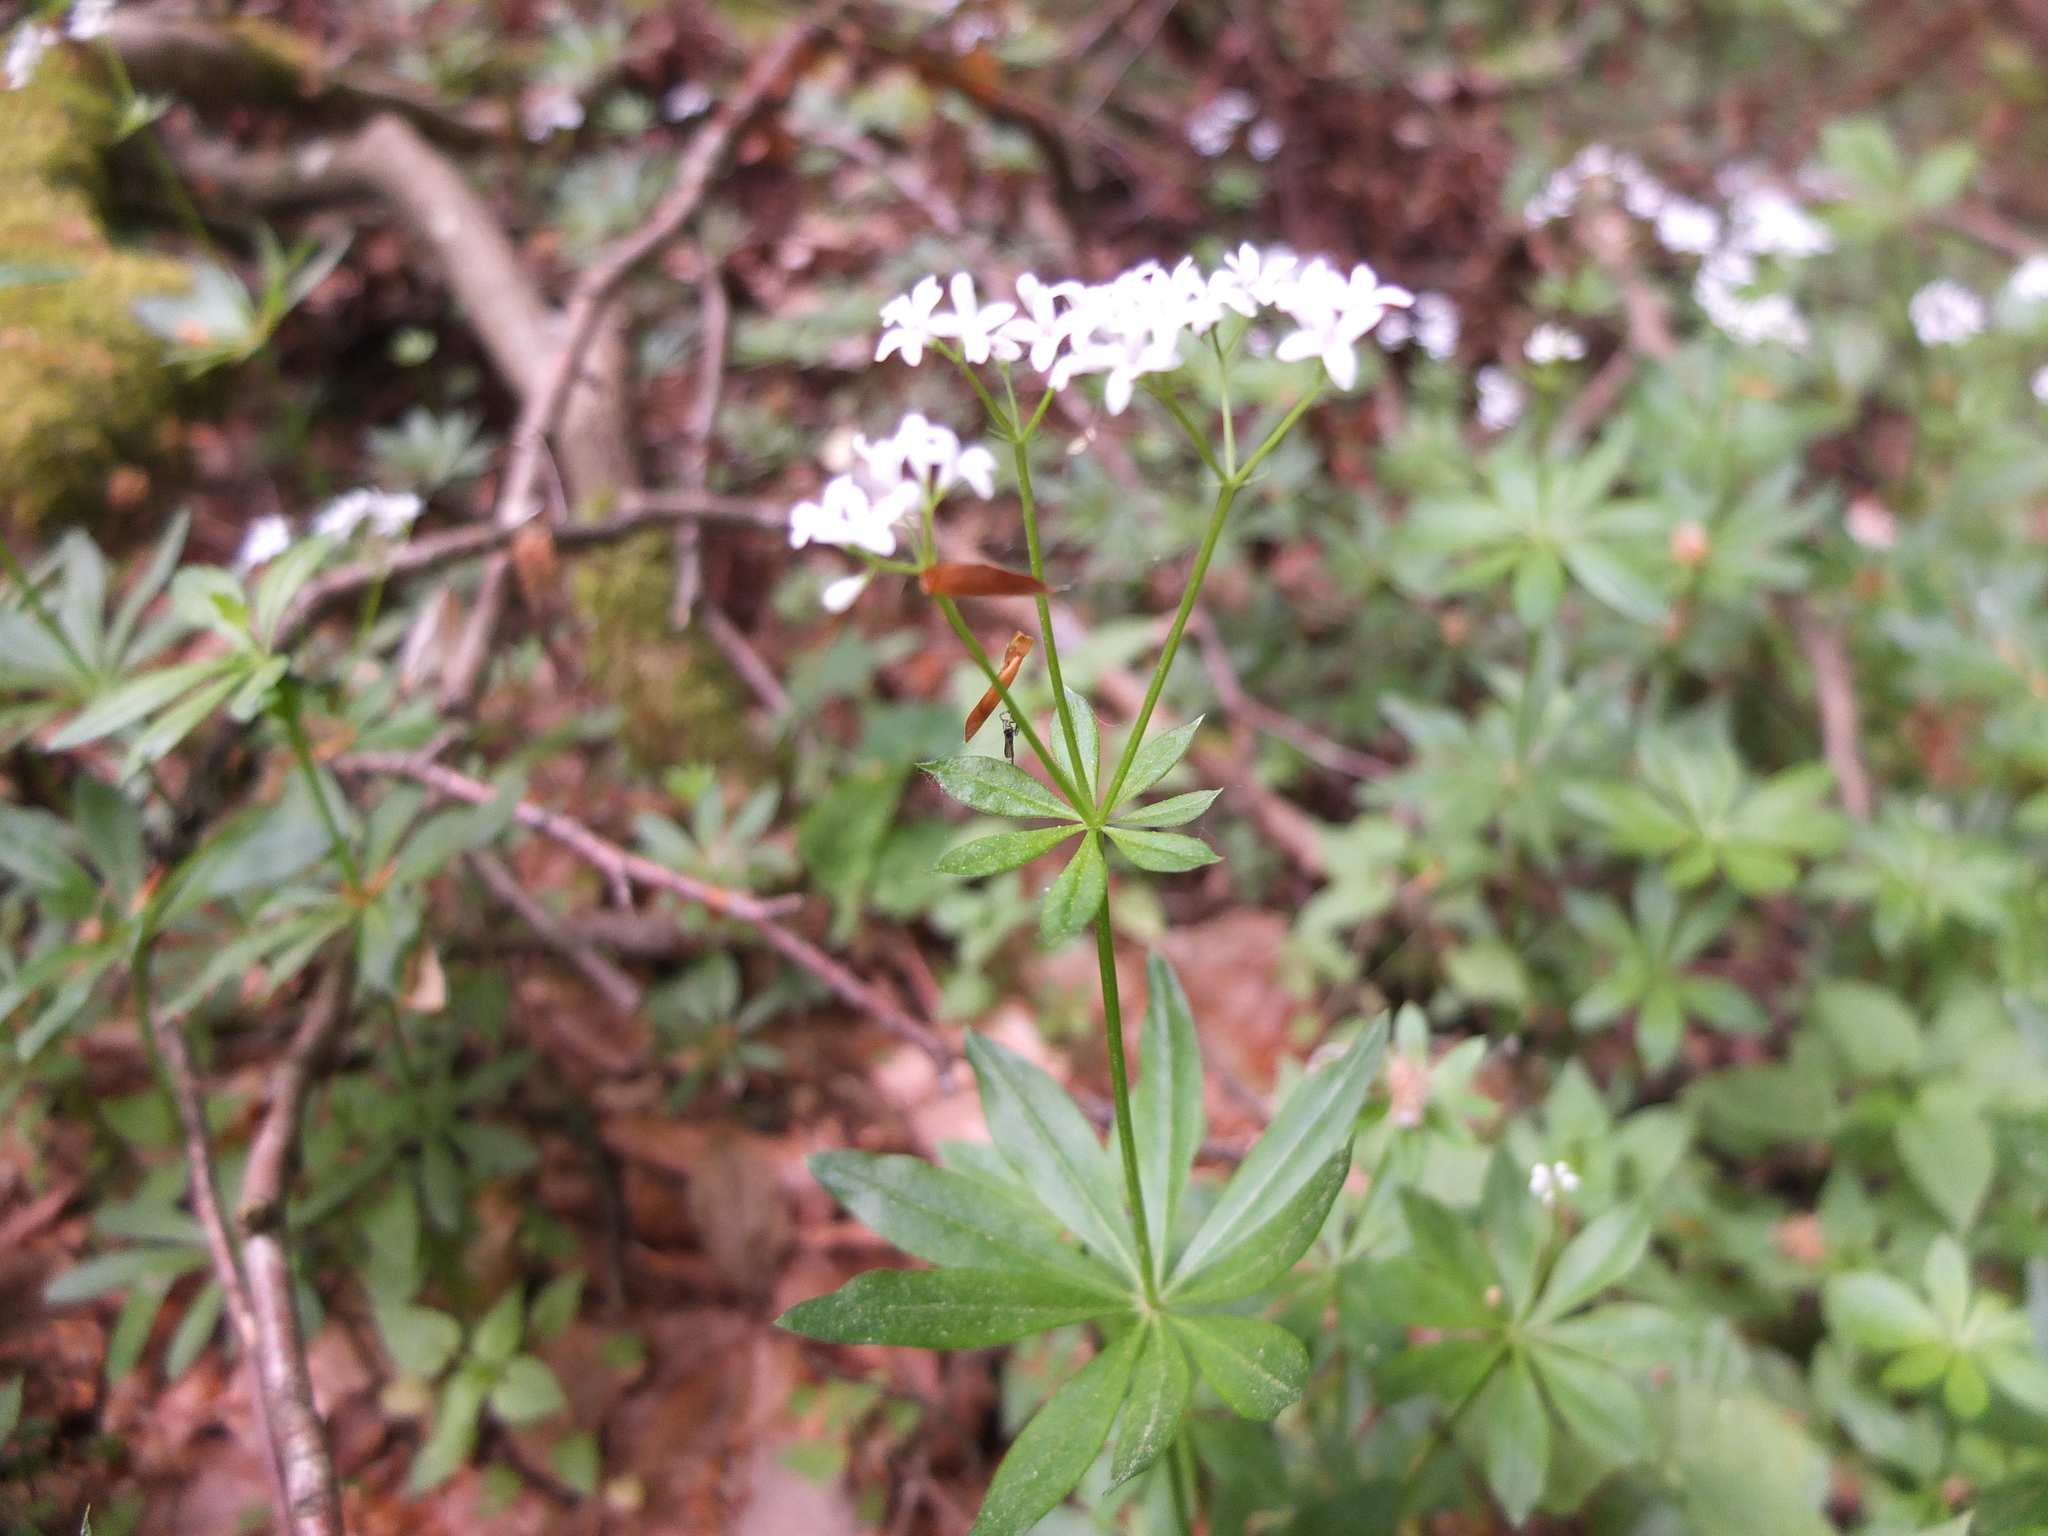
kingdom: Plantae
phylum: Tracheophyta
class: Magnoliopsida
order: Gentianales
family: Rubiaceae
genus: Galium
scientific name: Galium odoratum
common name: Sweet woodruff
